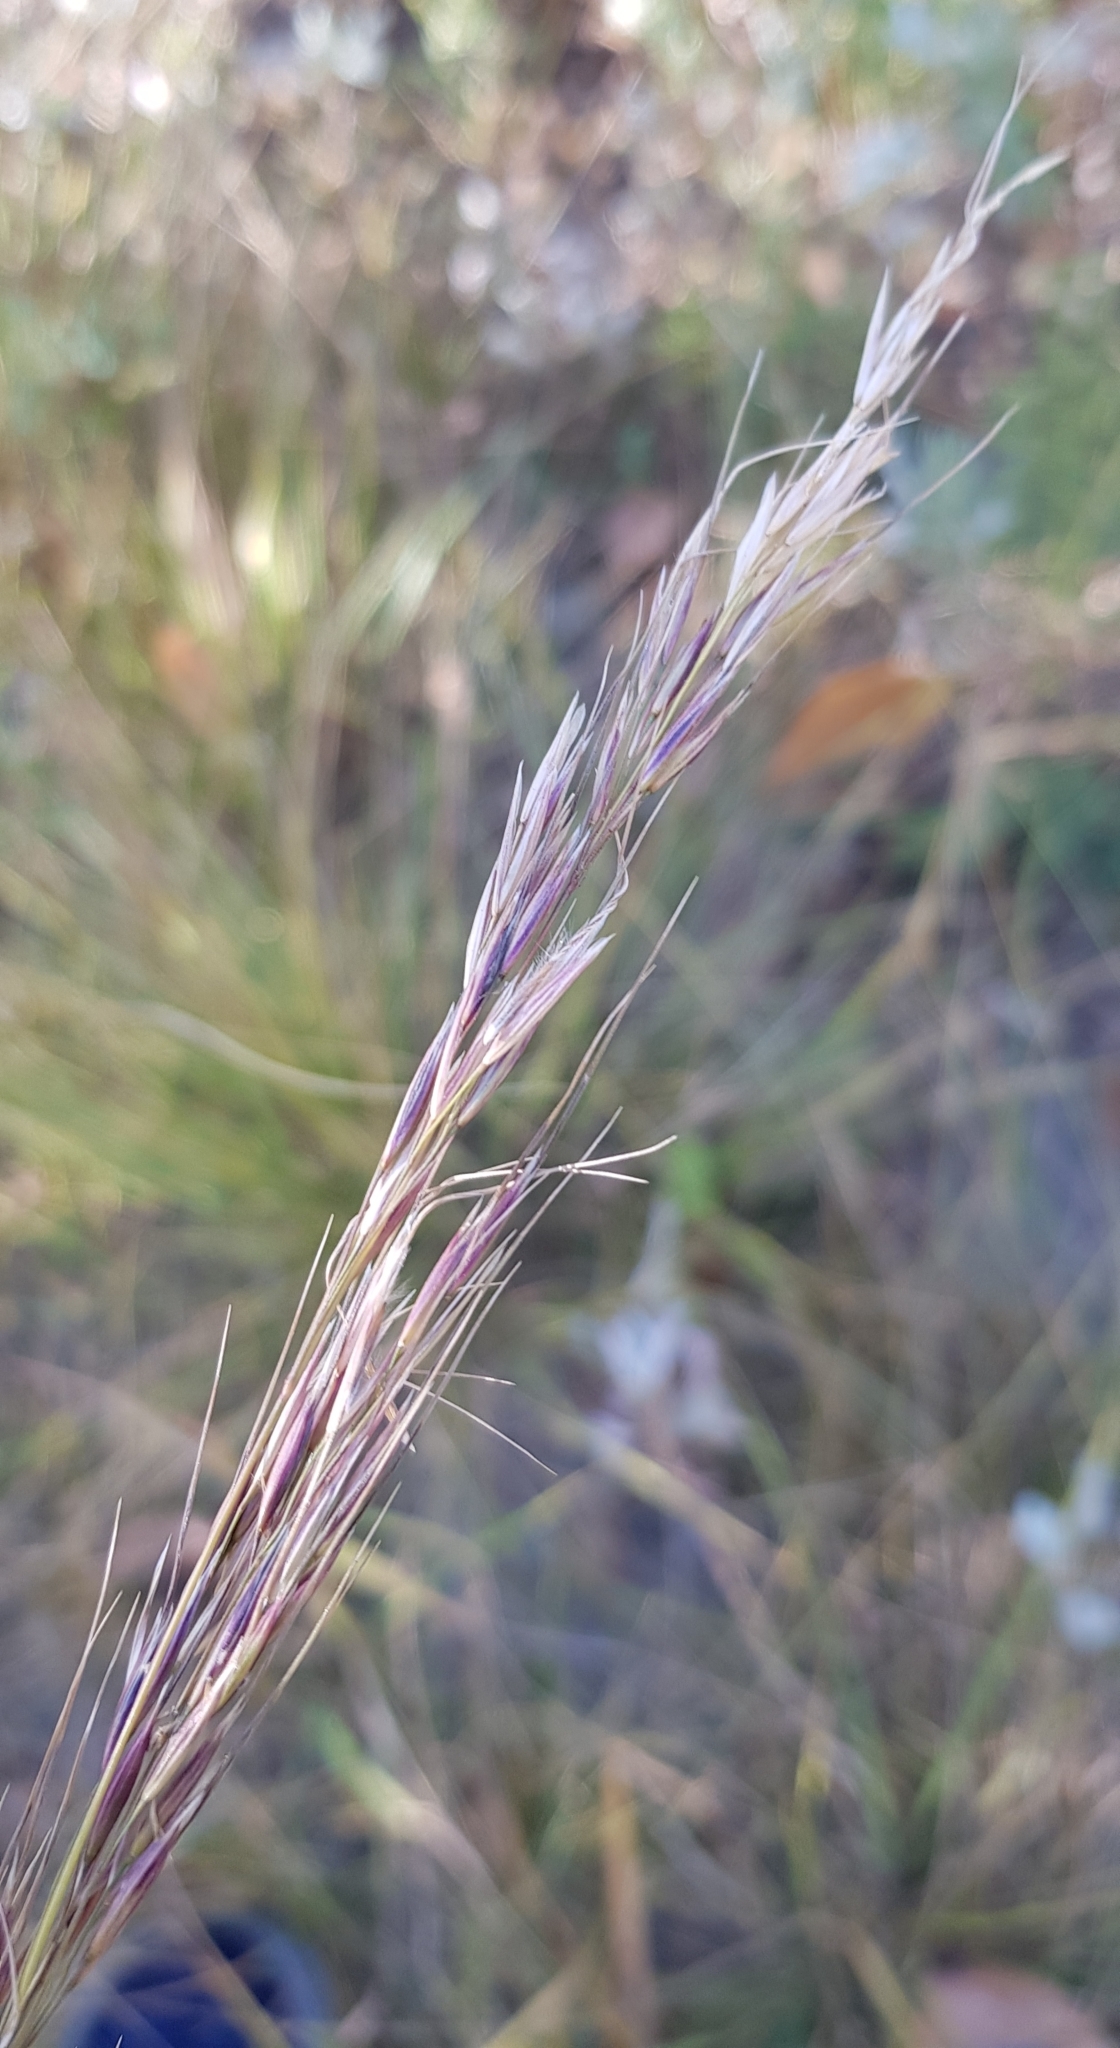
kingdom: Plantae
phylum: Tracheophyta
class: Liliopsida
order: Poales
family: Poaceae
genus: Achnatherum
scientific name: Achnatherum sibiricum
